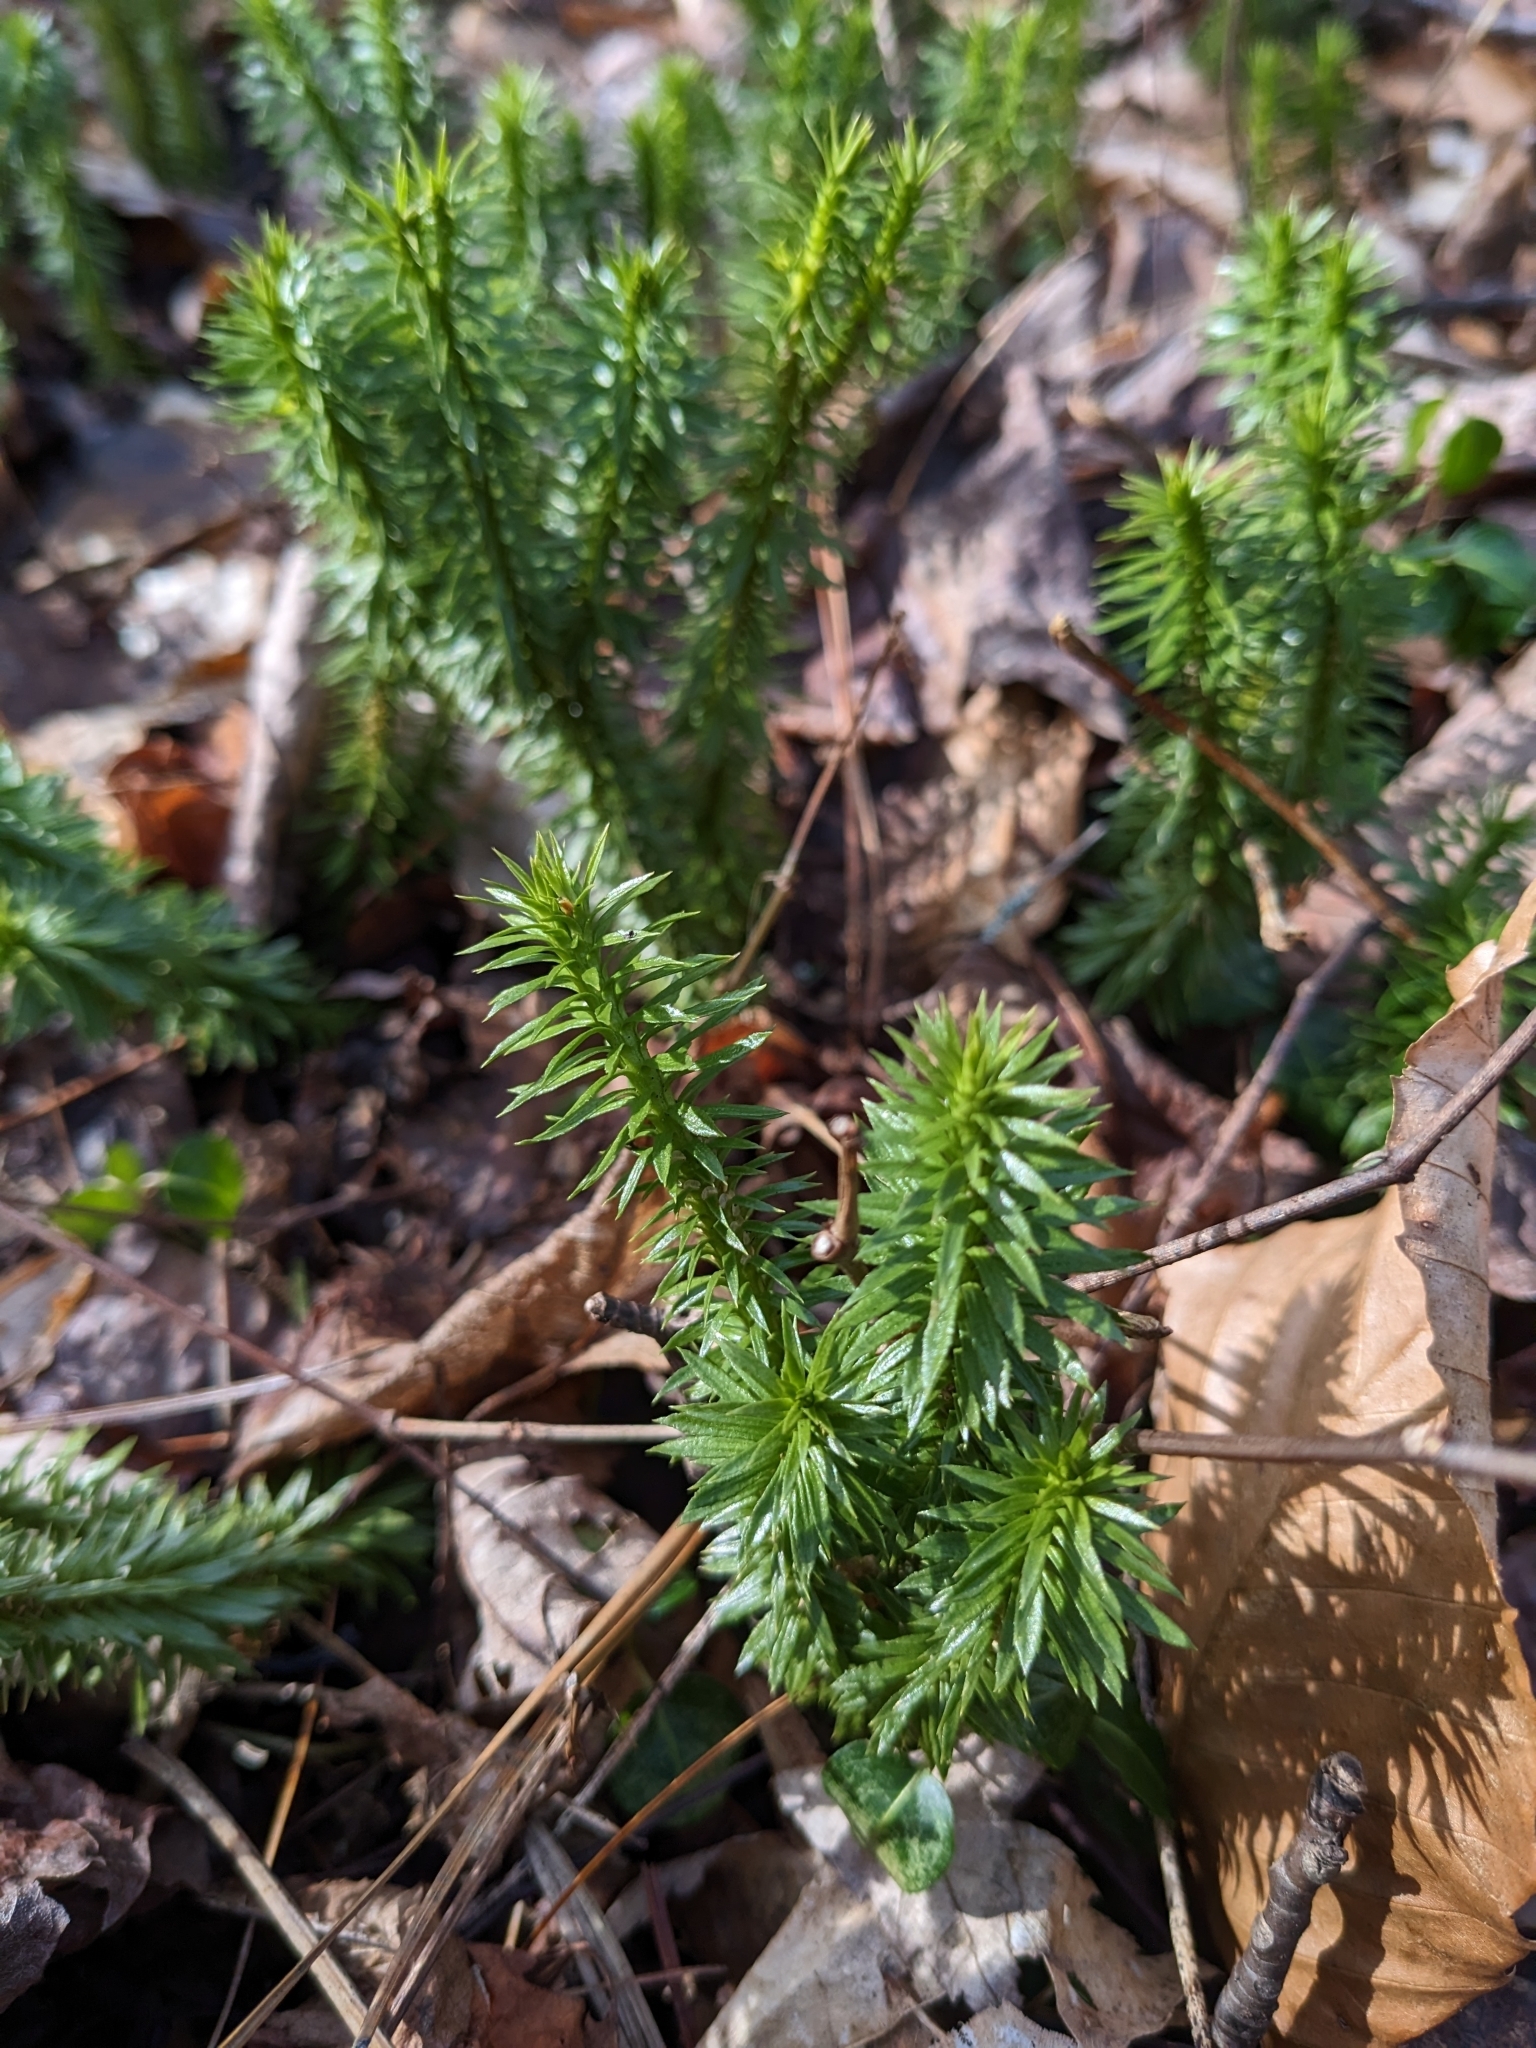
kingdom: Plantae
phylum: Tracheophyta
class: Lycopodiopsida
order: Lycopodiales
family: Lycopodiaceae
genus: Huperzia
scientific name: Huperzia lucidula
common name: Shining clubmoss
